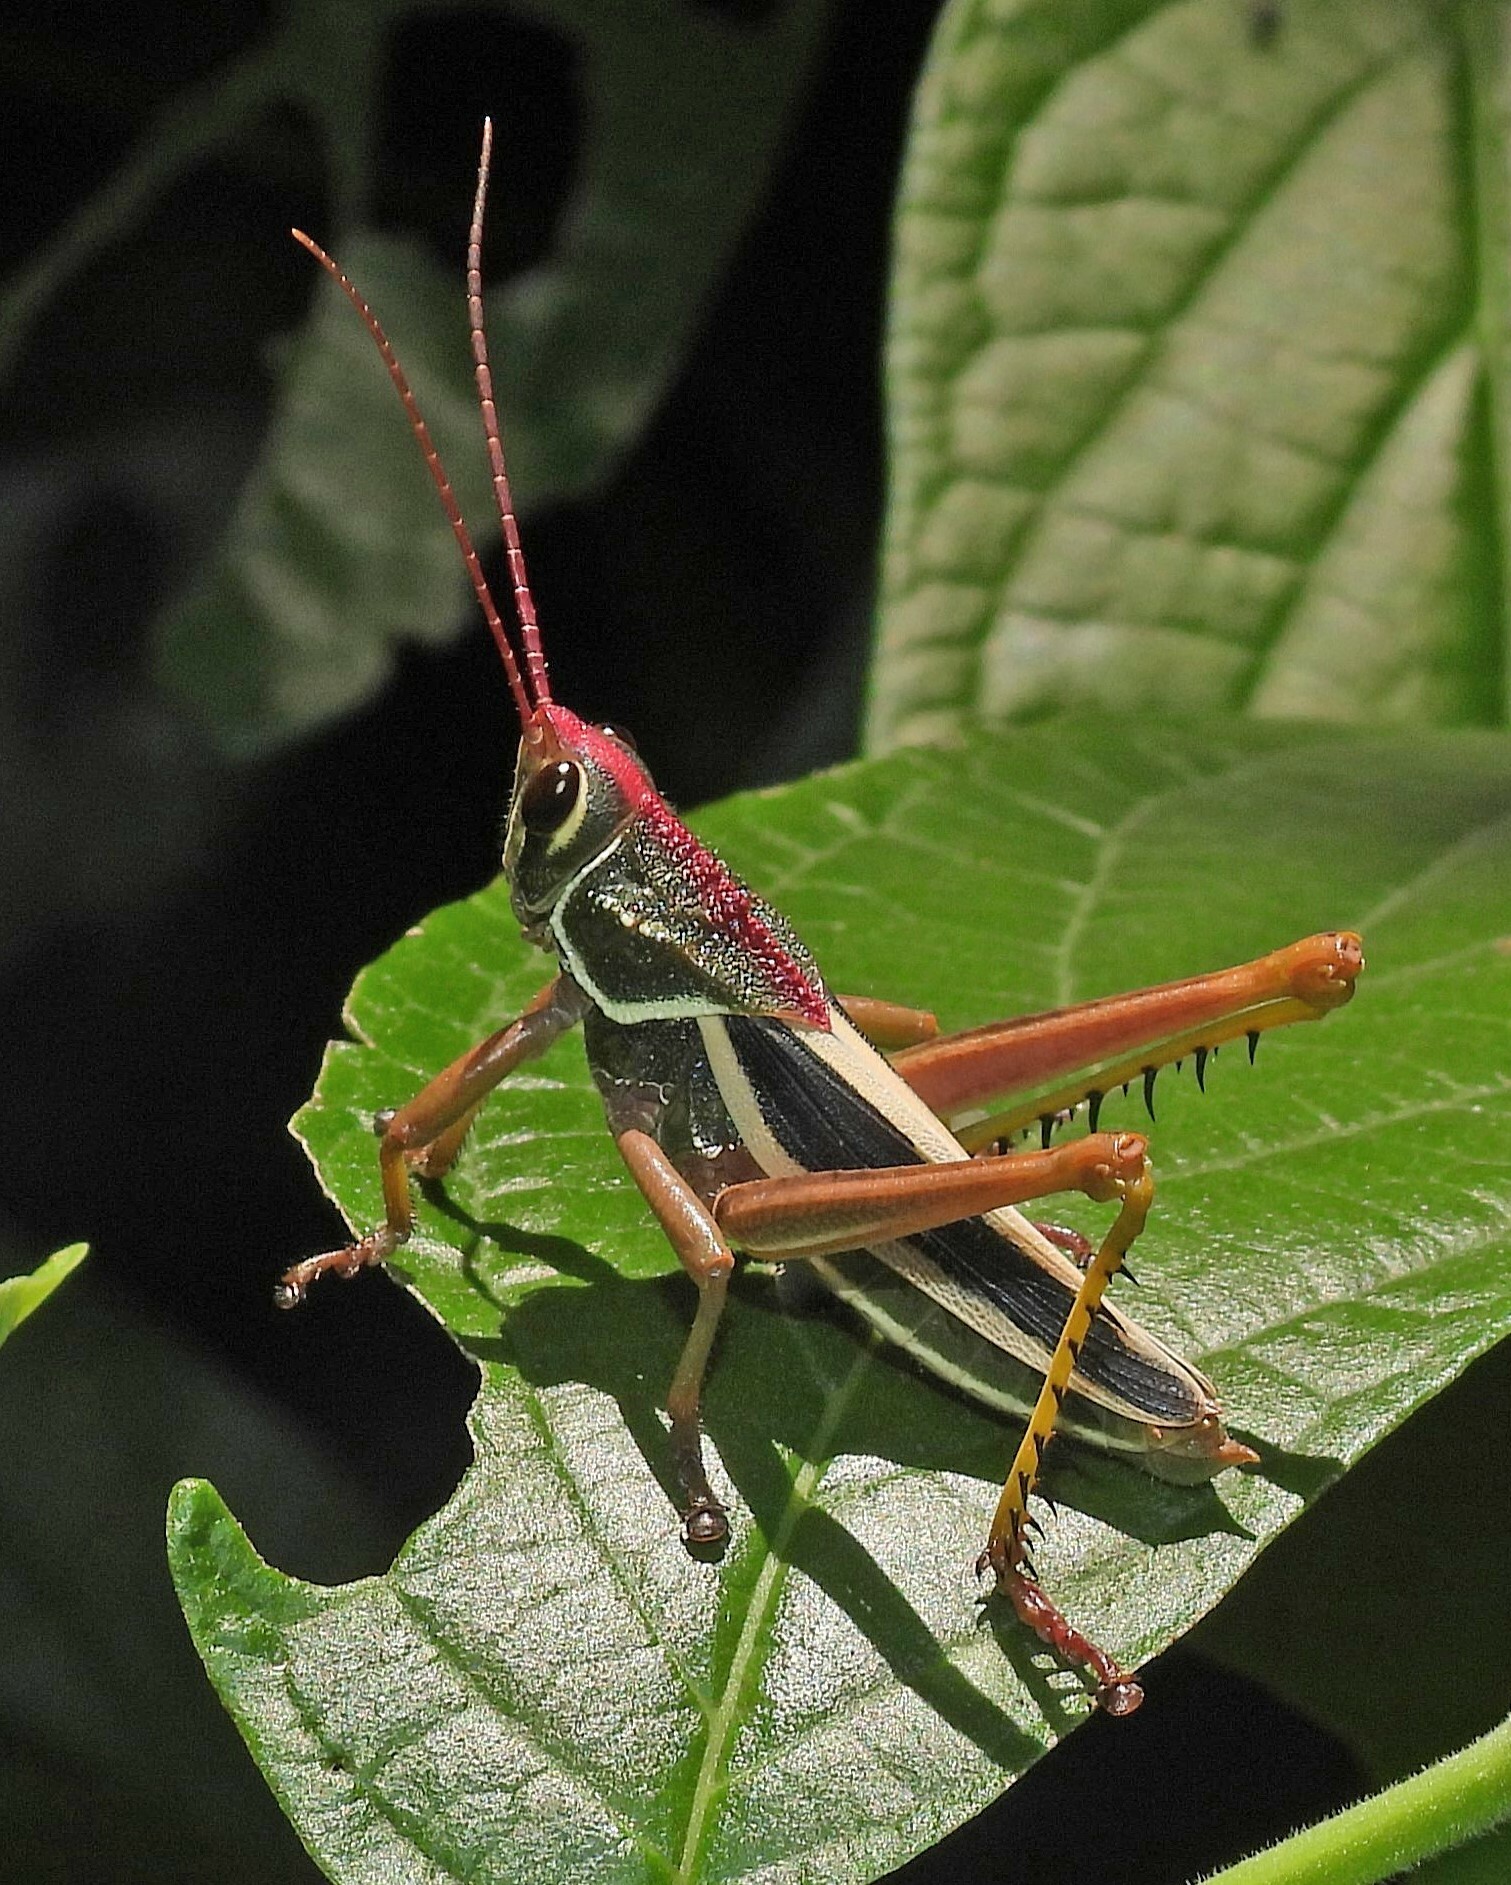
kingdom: Animalia
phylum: Arthropoda
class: Insecta
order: Orthoptera
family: Romaleidae
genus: Staleochlora
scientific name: Staleochlora arcuata
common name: Paraná purple-backed grasshopper
